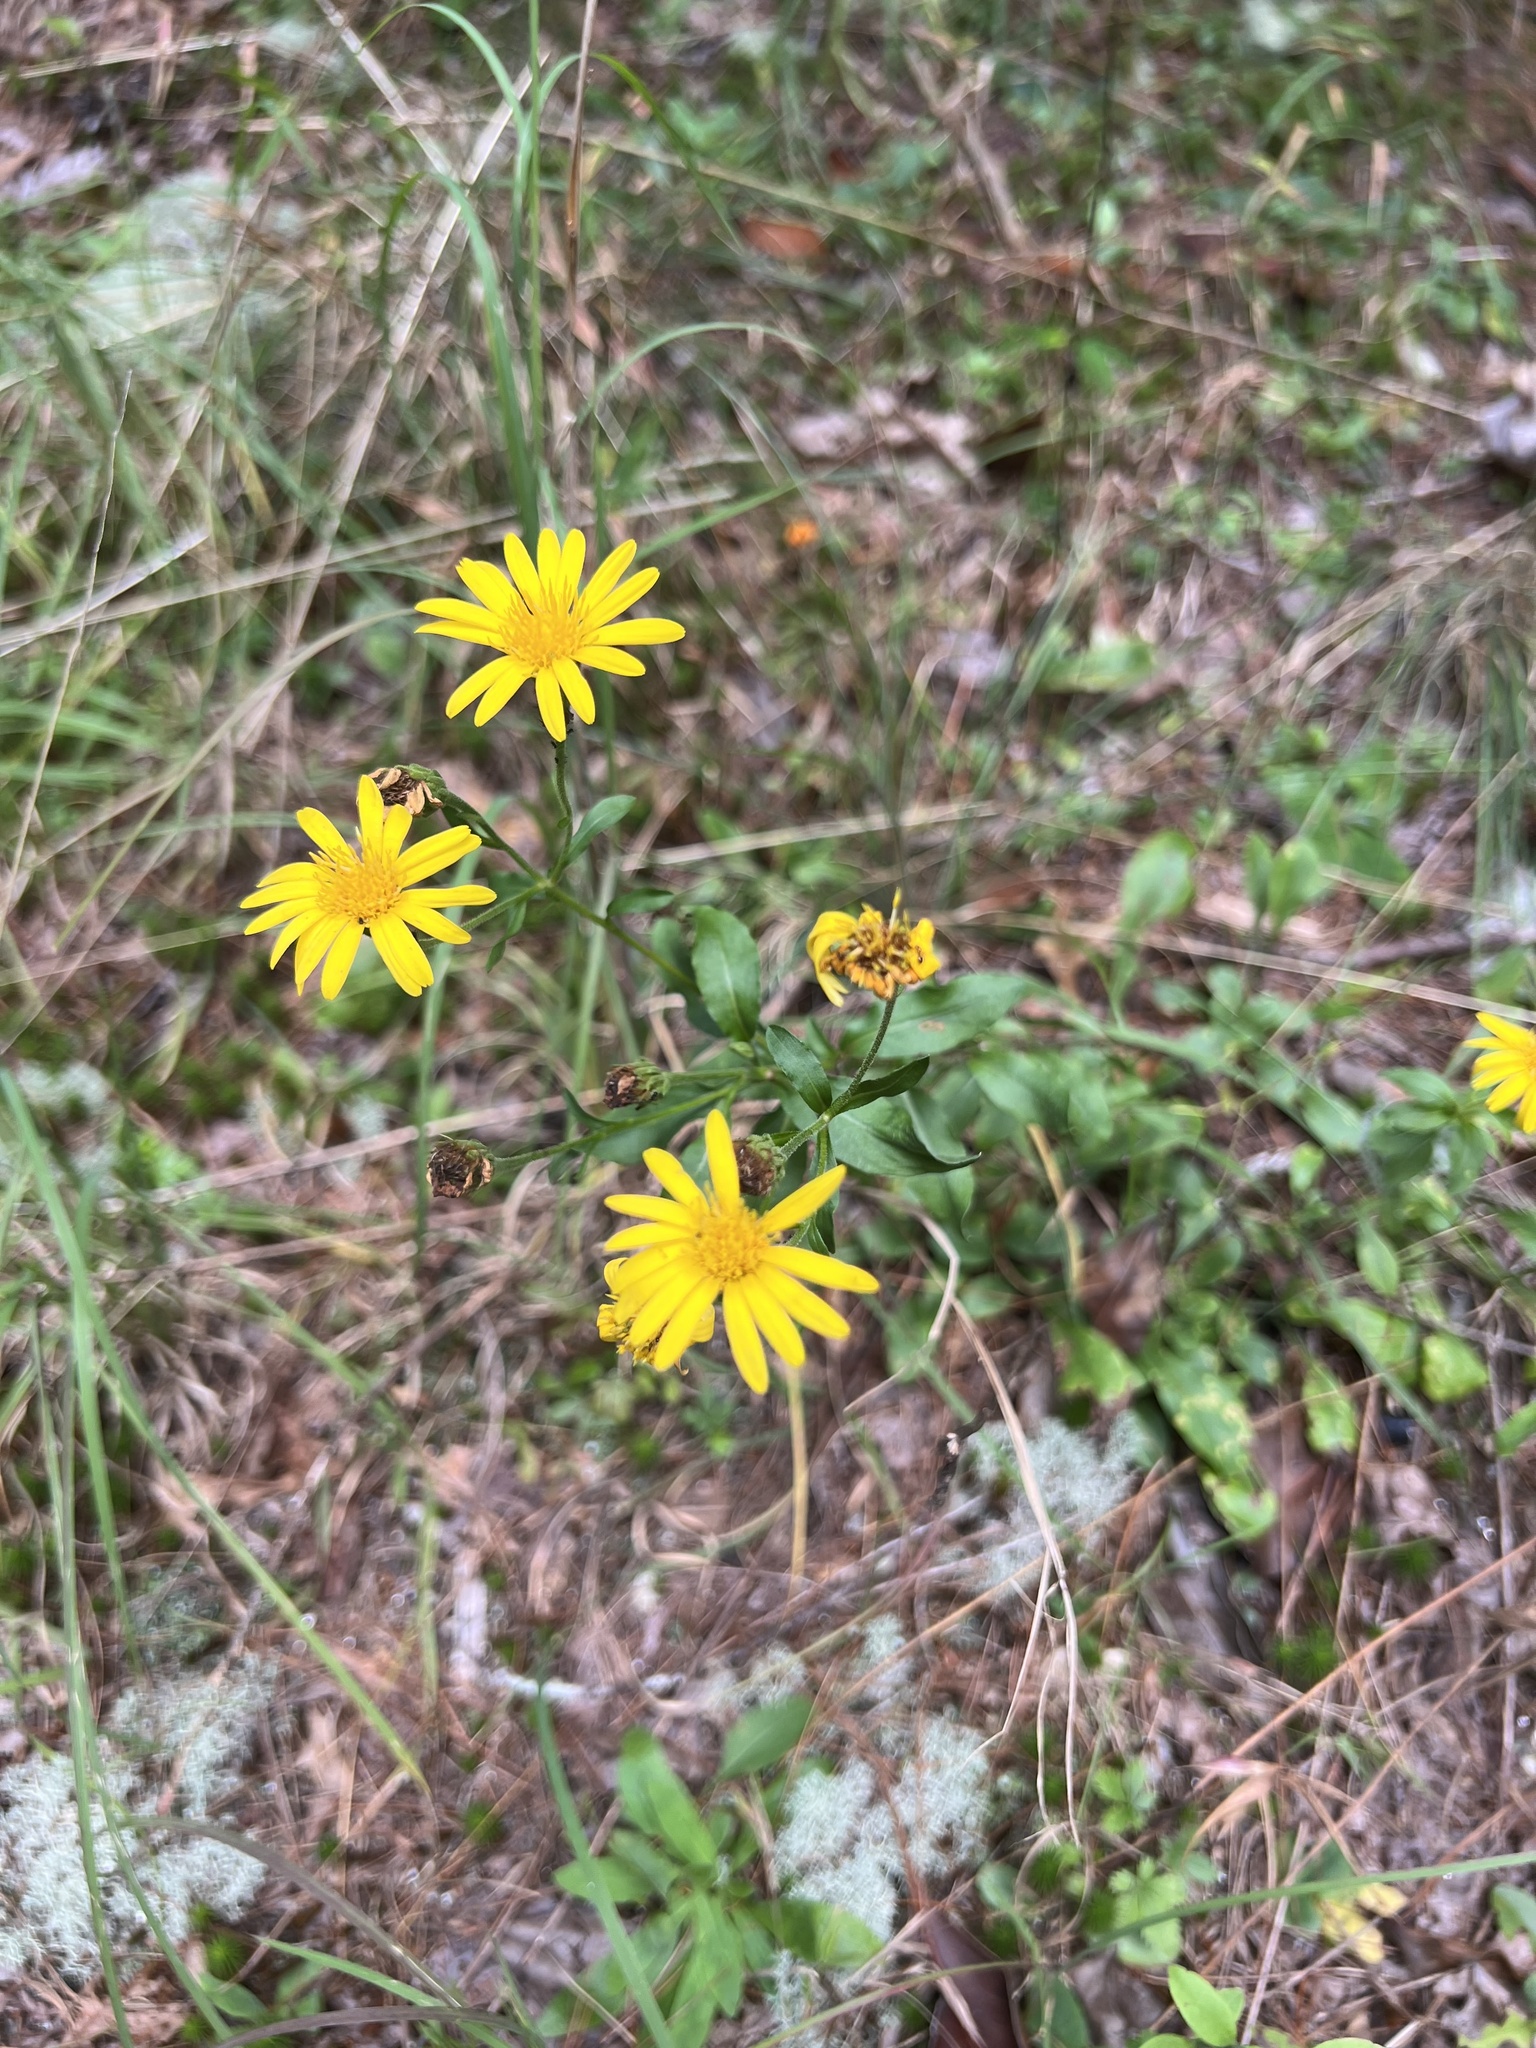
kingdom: Plantae
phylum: Tracheophyta
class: Magnoliopsida
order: Asterales
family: Asteraceae
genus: Chrysopsis
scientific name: Chrysopsis mariana
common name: Maryland golden-aster
